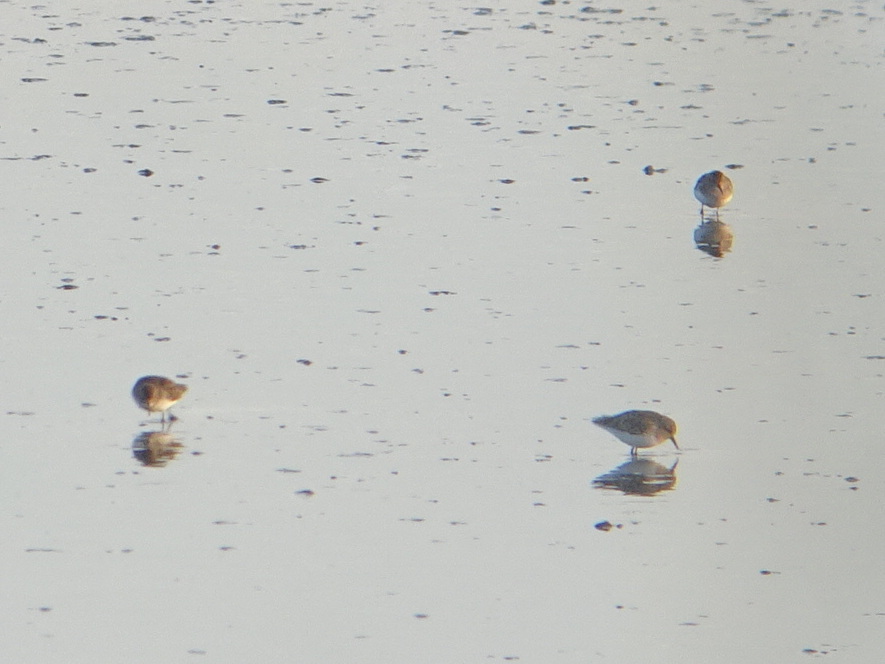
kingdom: Animalia
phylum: Chordata
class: Aves
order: Charadriiformes
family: Scolopacidae
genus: Calidris
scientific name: Calidris minutilla
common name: Least sandpiper
